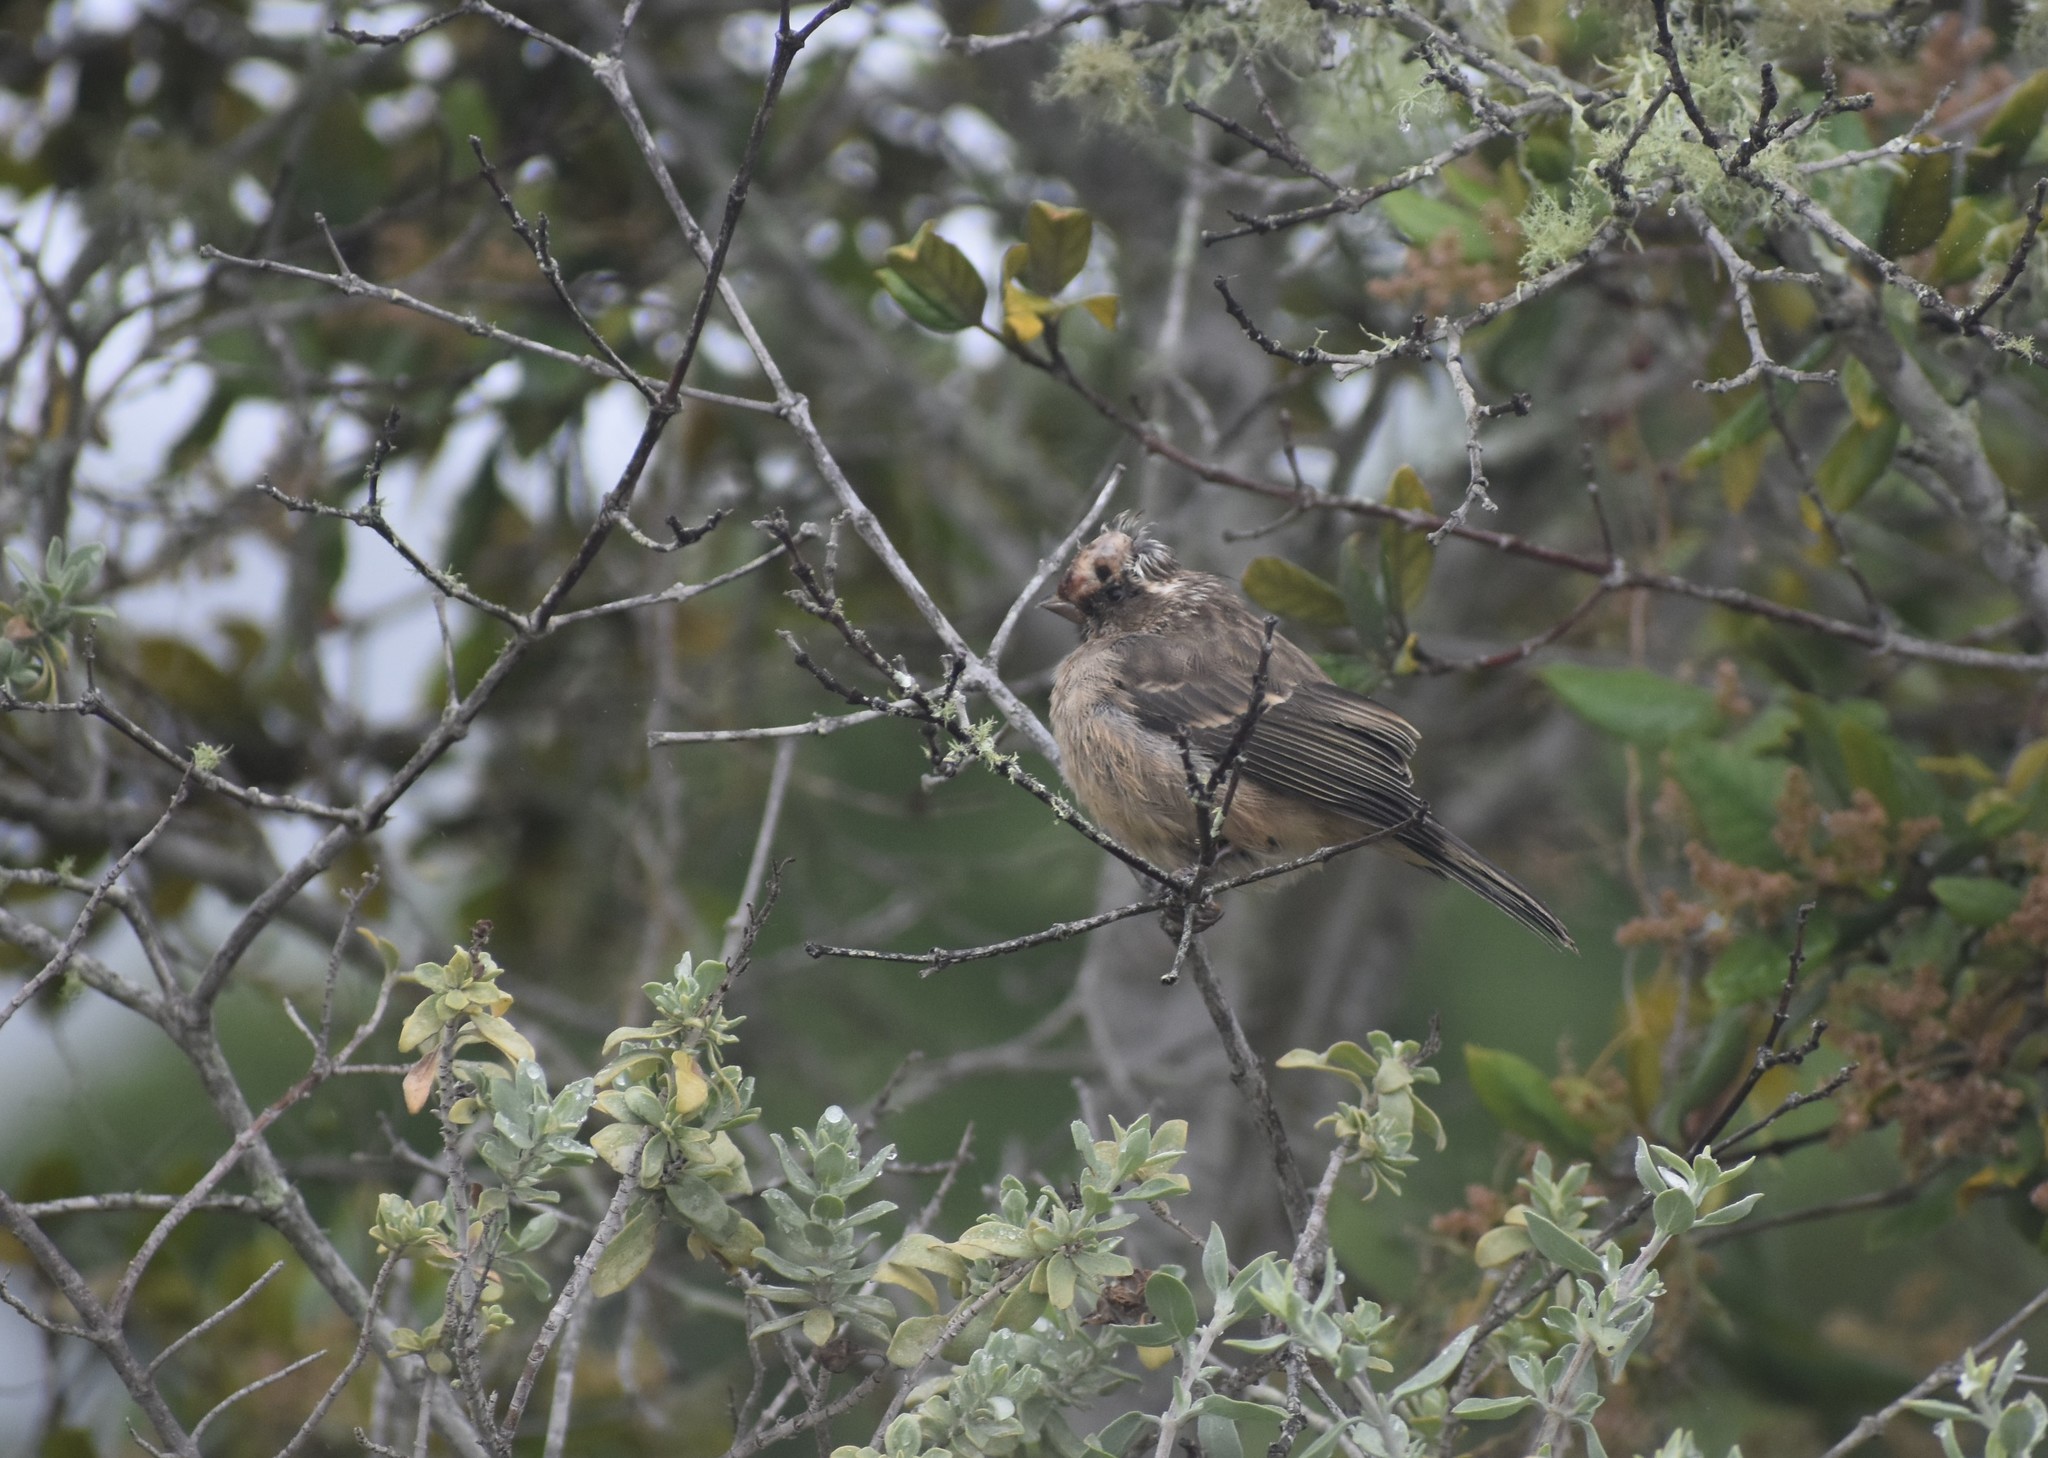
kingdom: Animalia
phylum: Chordata
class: Aves
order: Passeriformes
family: Fringillidae
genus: Crithagra
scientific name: Crithagra gularis
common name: Streaky-headed seedeater
